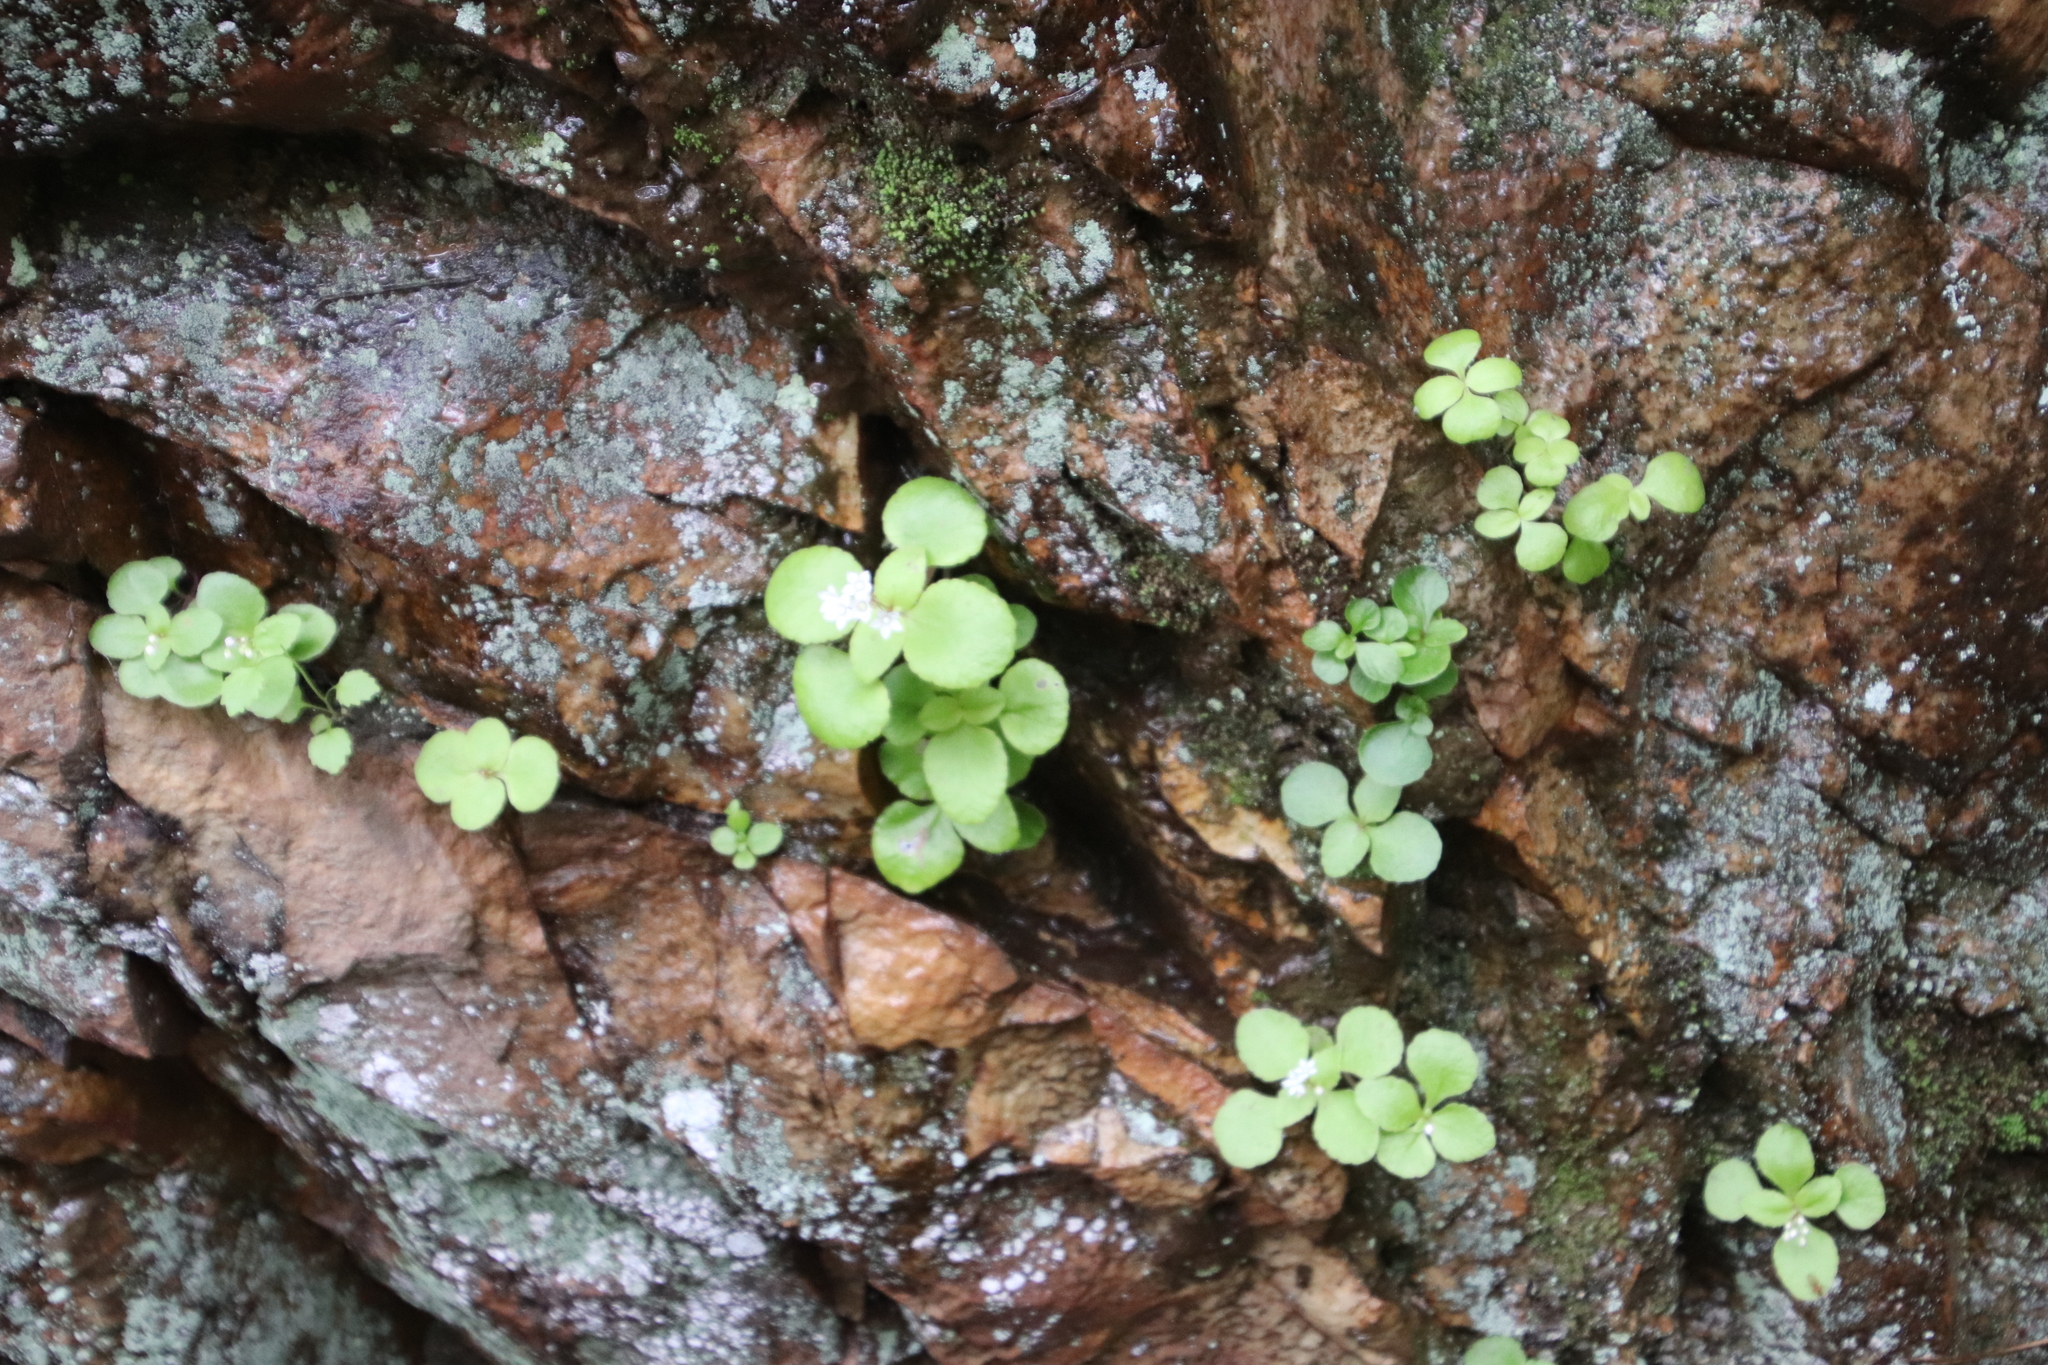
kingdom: Plantae
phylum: Tracheophyta
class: Magnoliopsida
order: Saxifragales
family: Crassulaceae
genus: Crassula
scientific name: Crassula capensis
